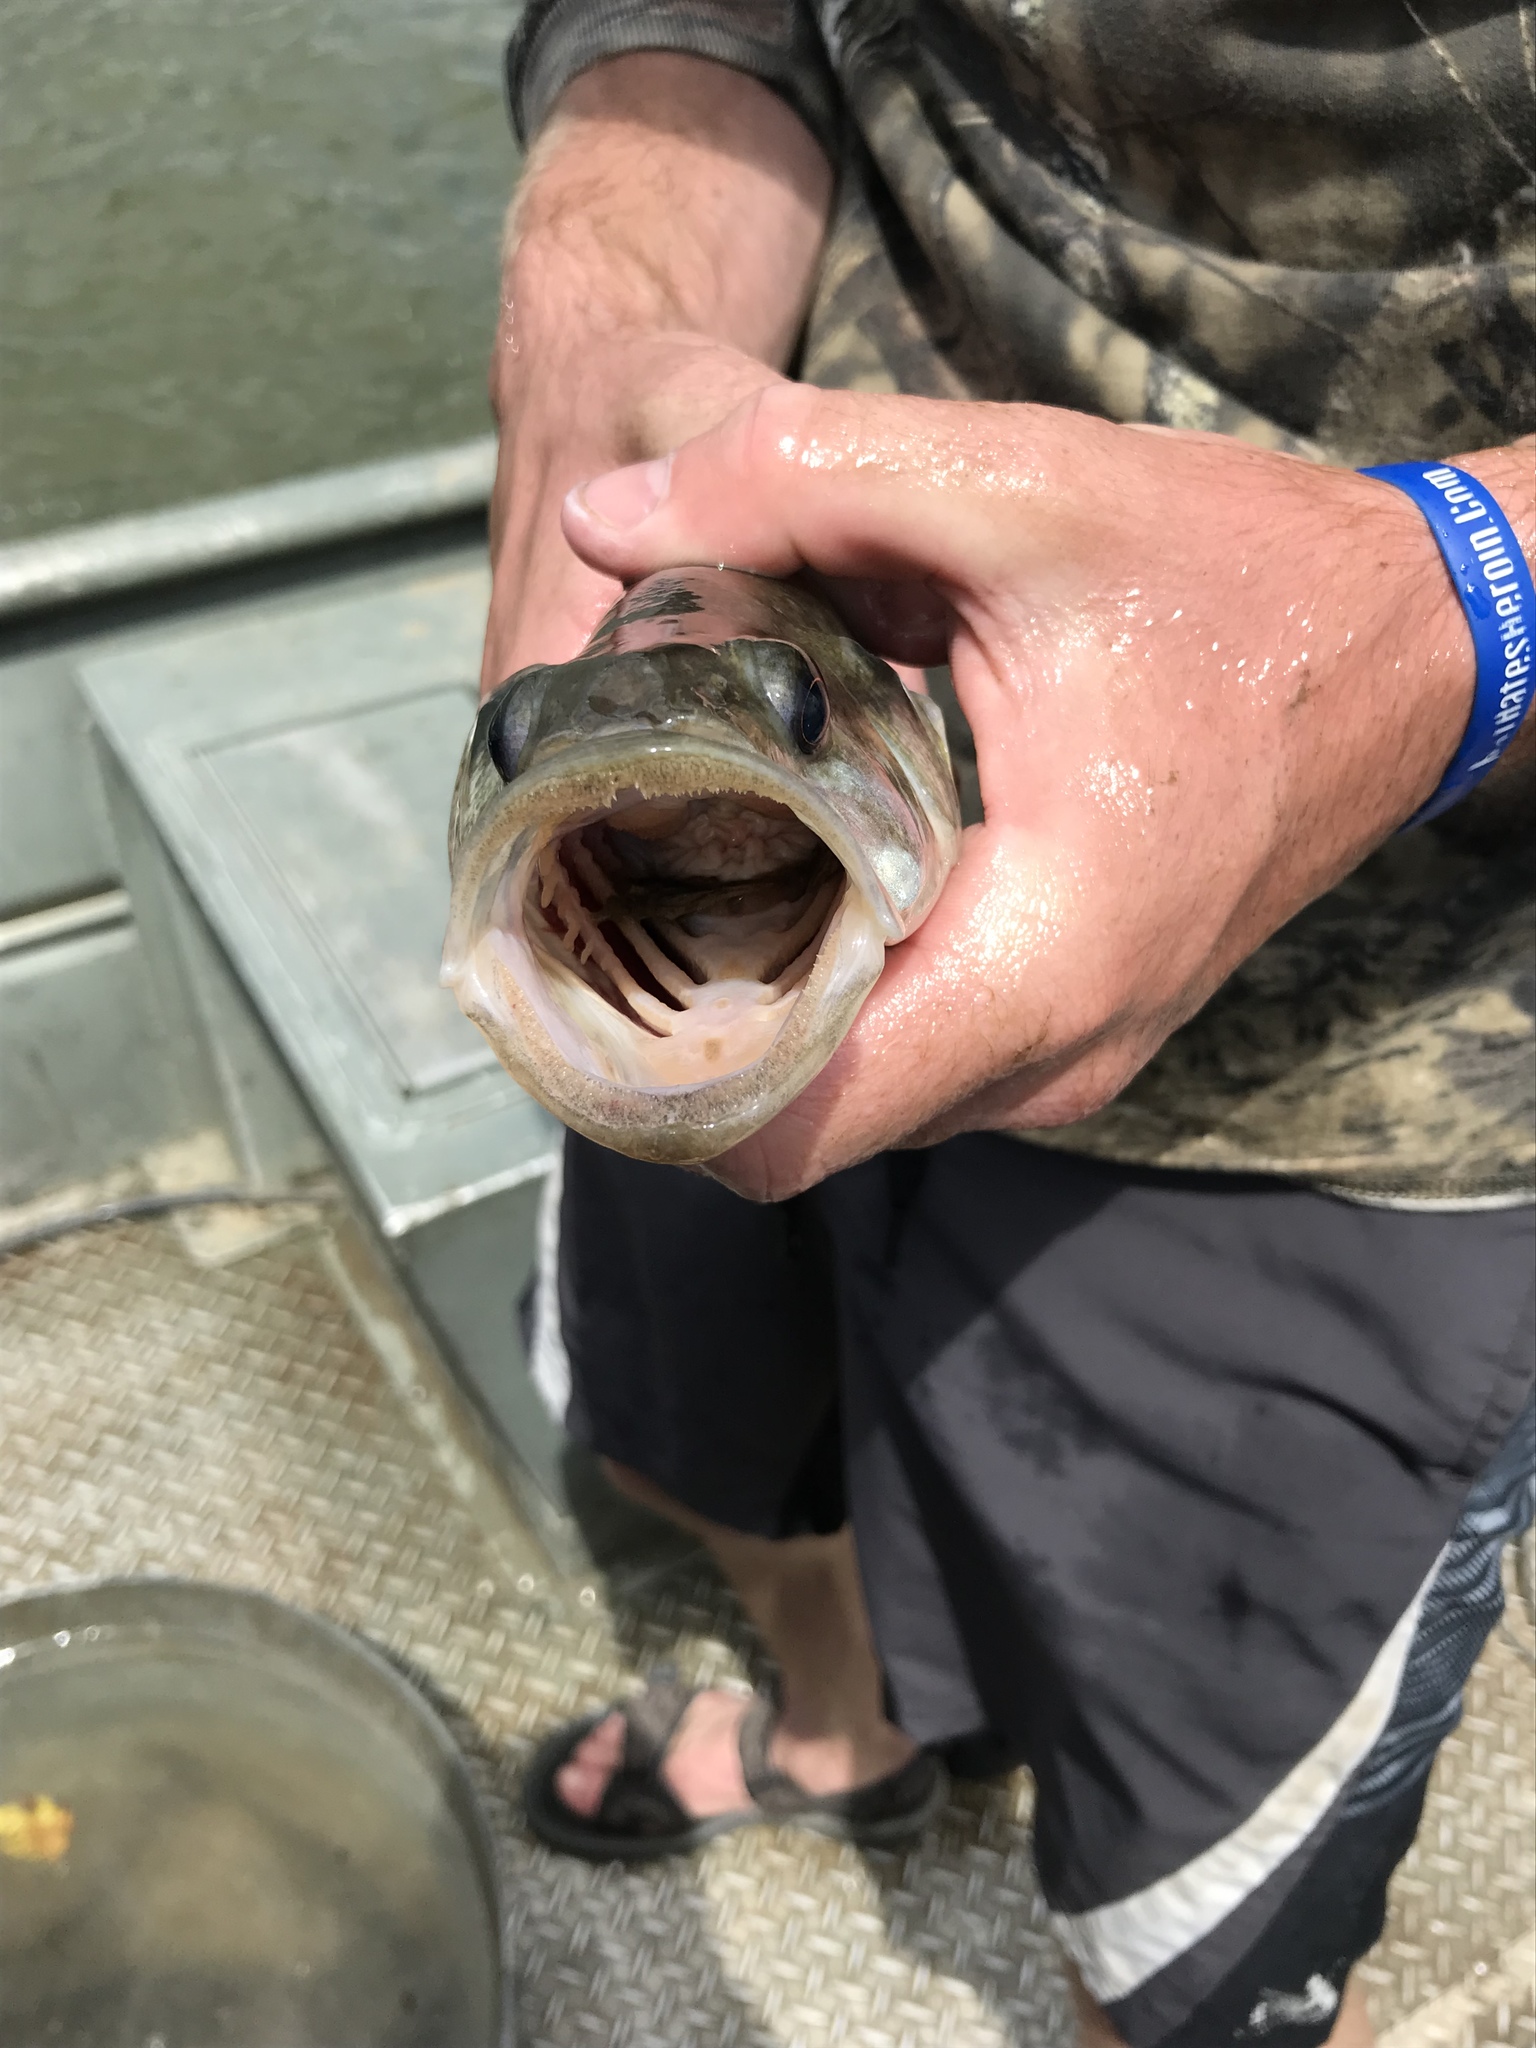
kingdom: Animalia
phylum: Chordata
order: Perciformes
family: Centrarchidae
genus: Micropterus
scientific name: Micropterus punctulatus
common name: Spotted bass
